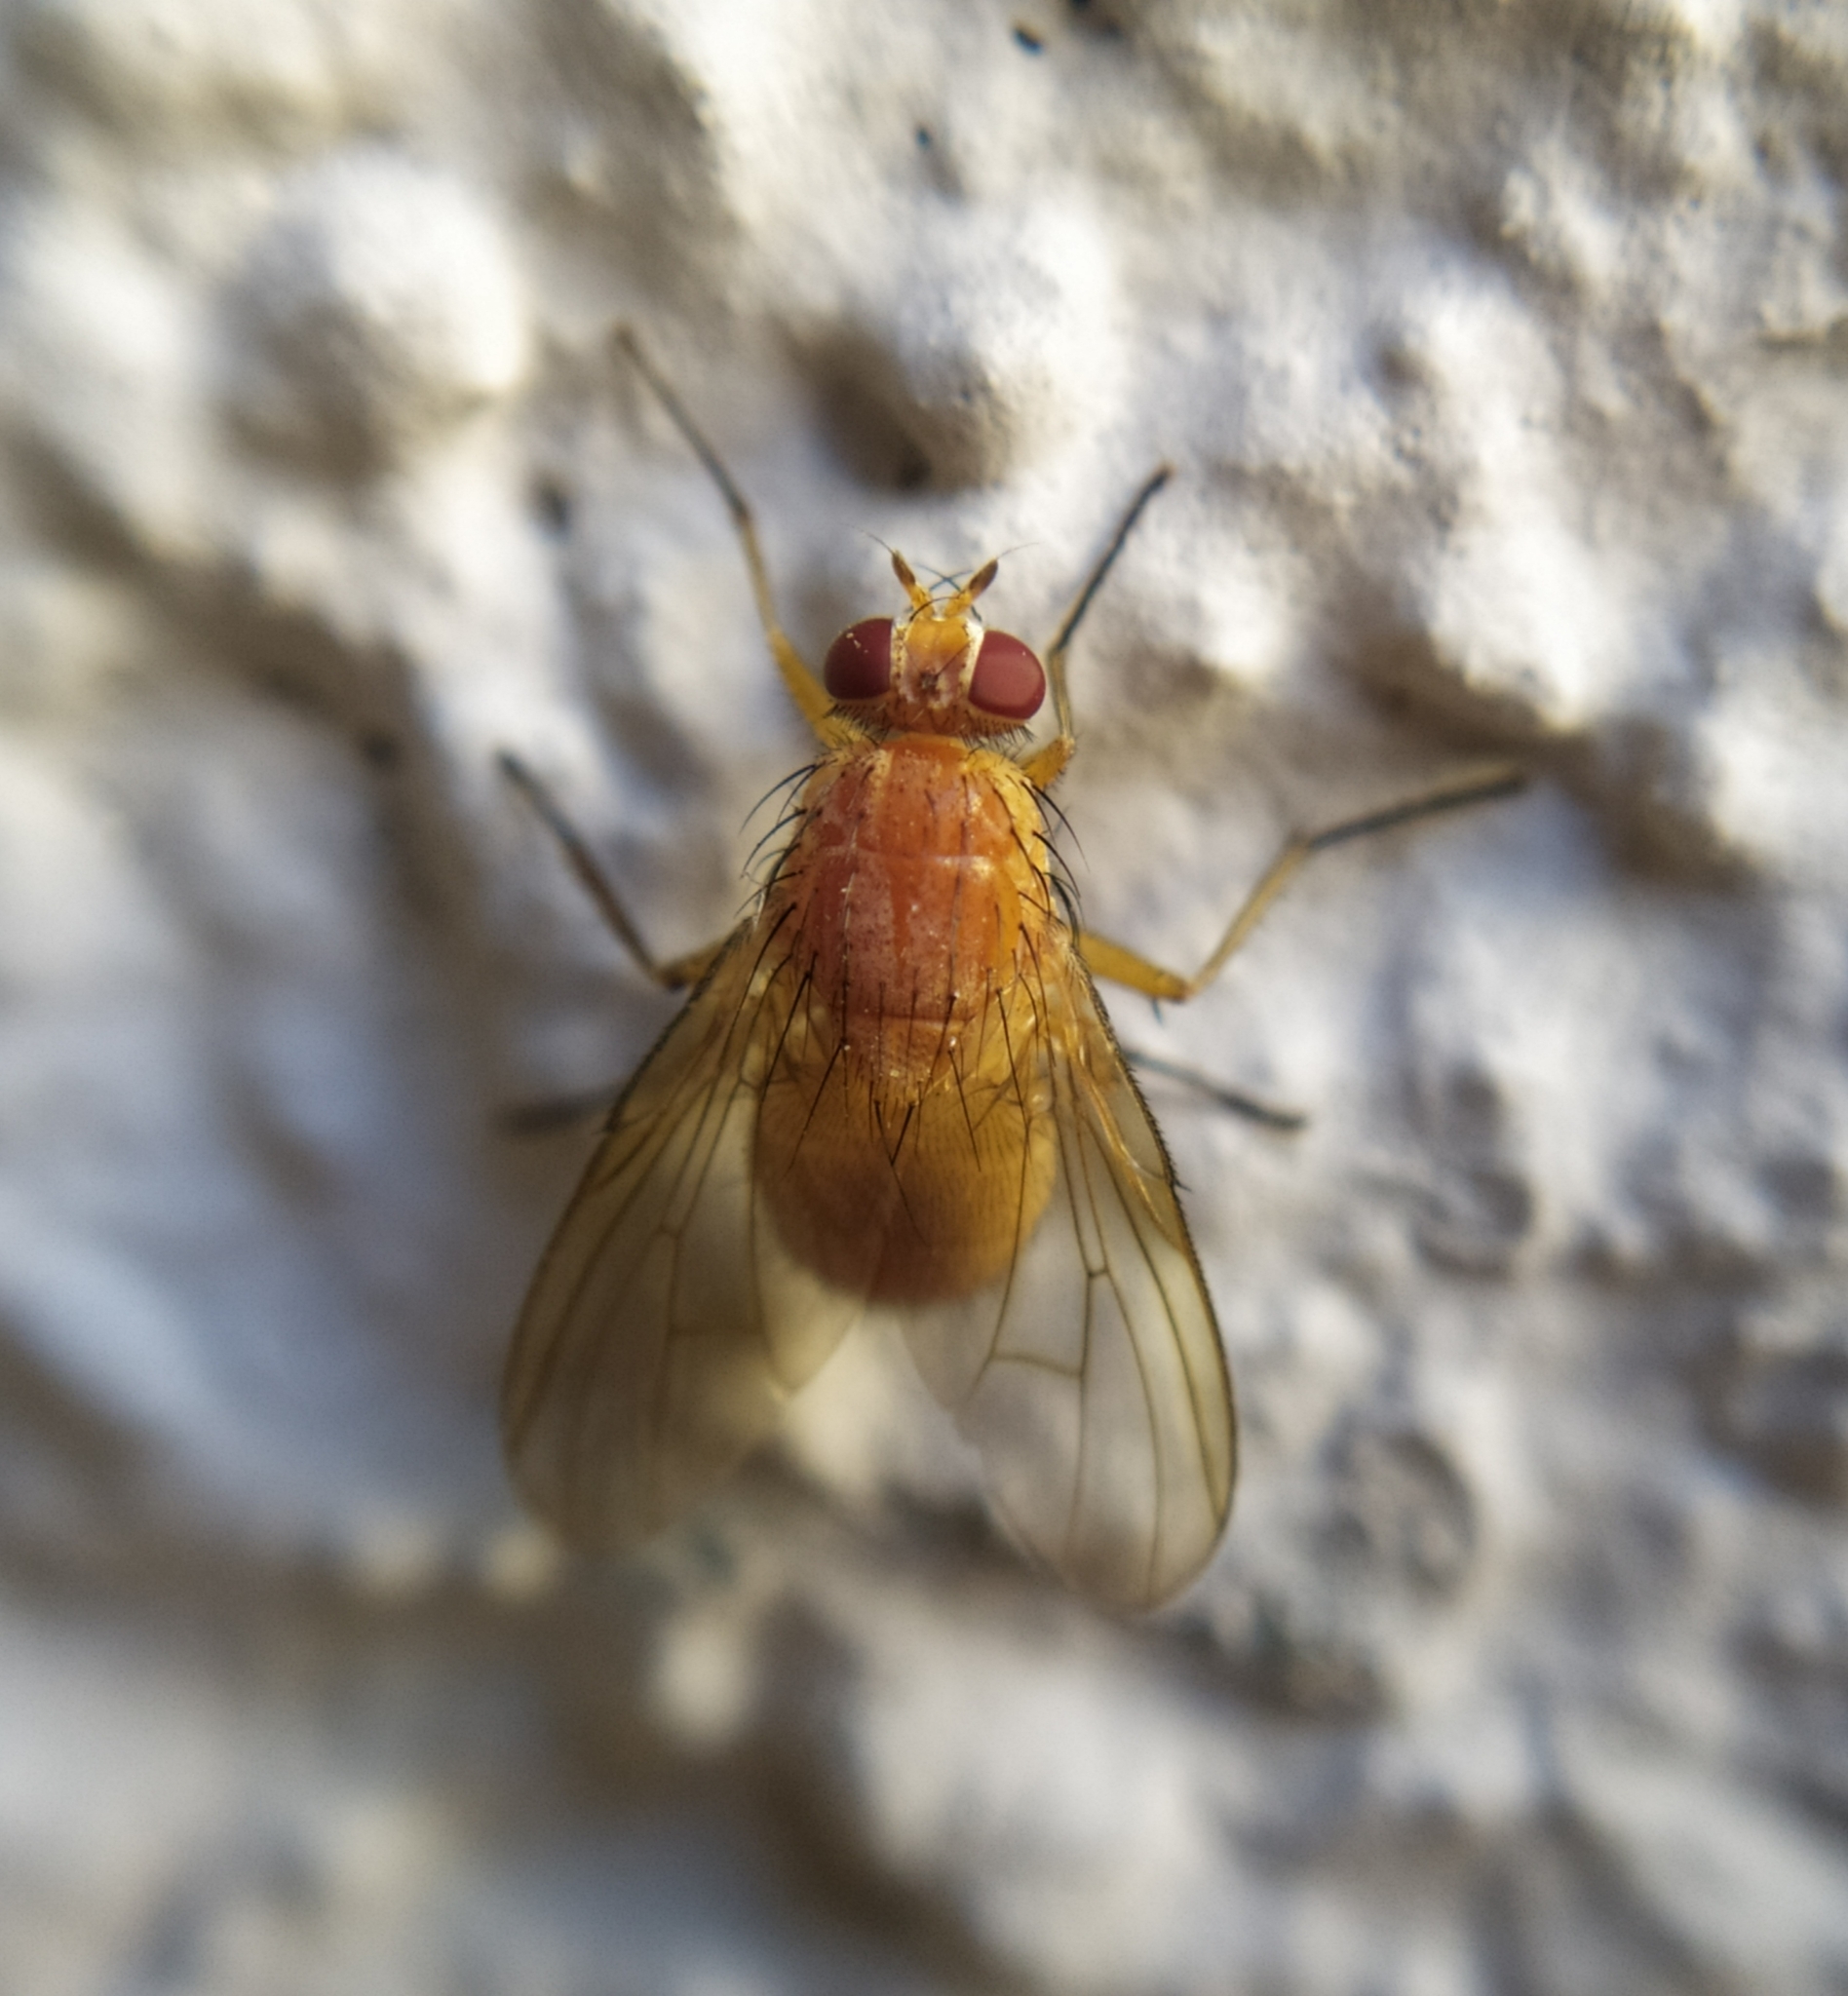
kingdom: Animalia
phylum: Arthropoda
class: Insecta
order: Diptera
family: Muscidae
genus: Phaonia
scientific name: Phaonia pallida
